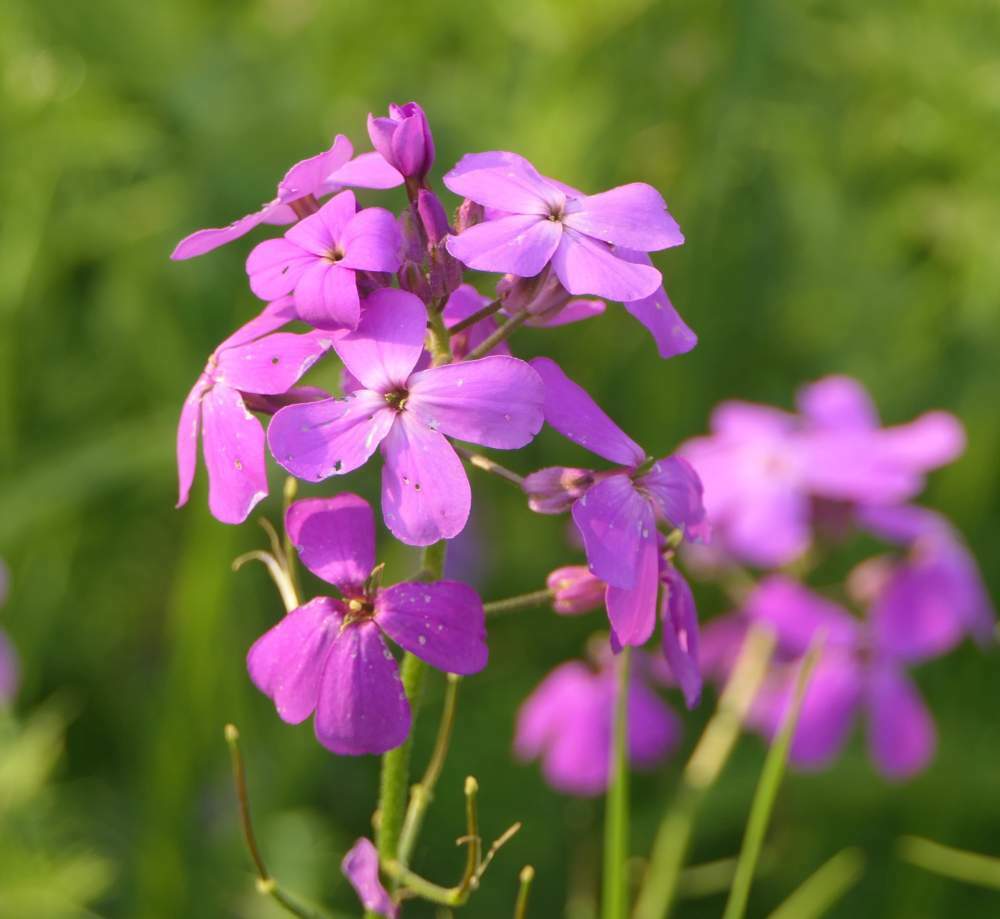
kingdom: Plantae
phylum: Tracheophyta
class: Magnoliopsida
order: Brassicales
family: Brassicaceae
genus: Hesperis
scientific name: Hesperis matronalis
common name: Dame's-violet
